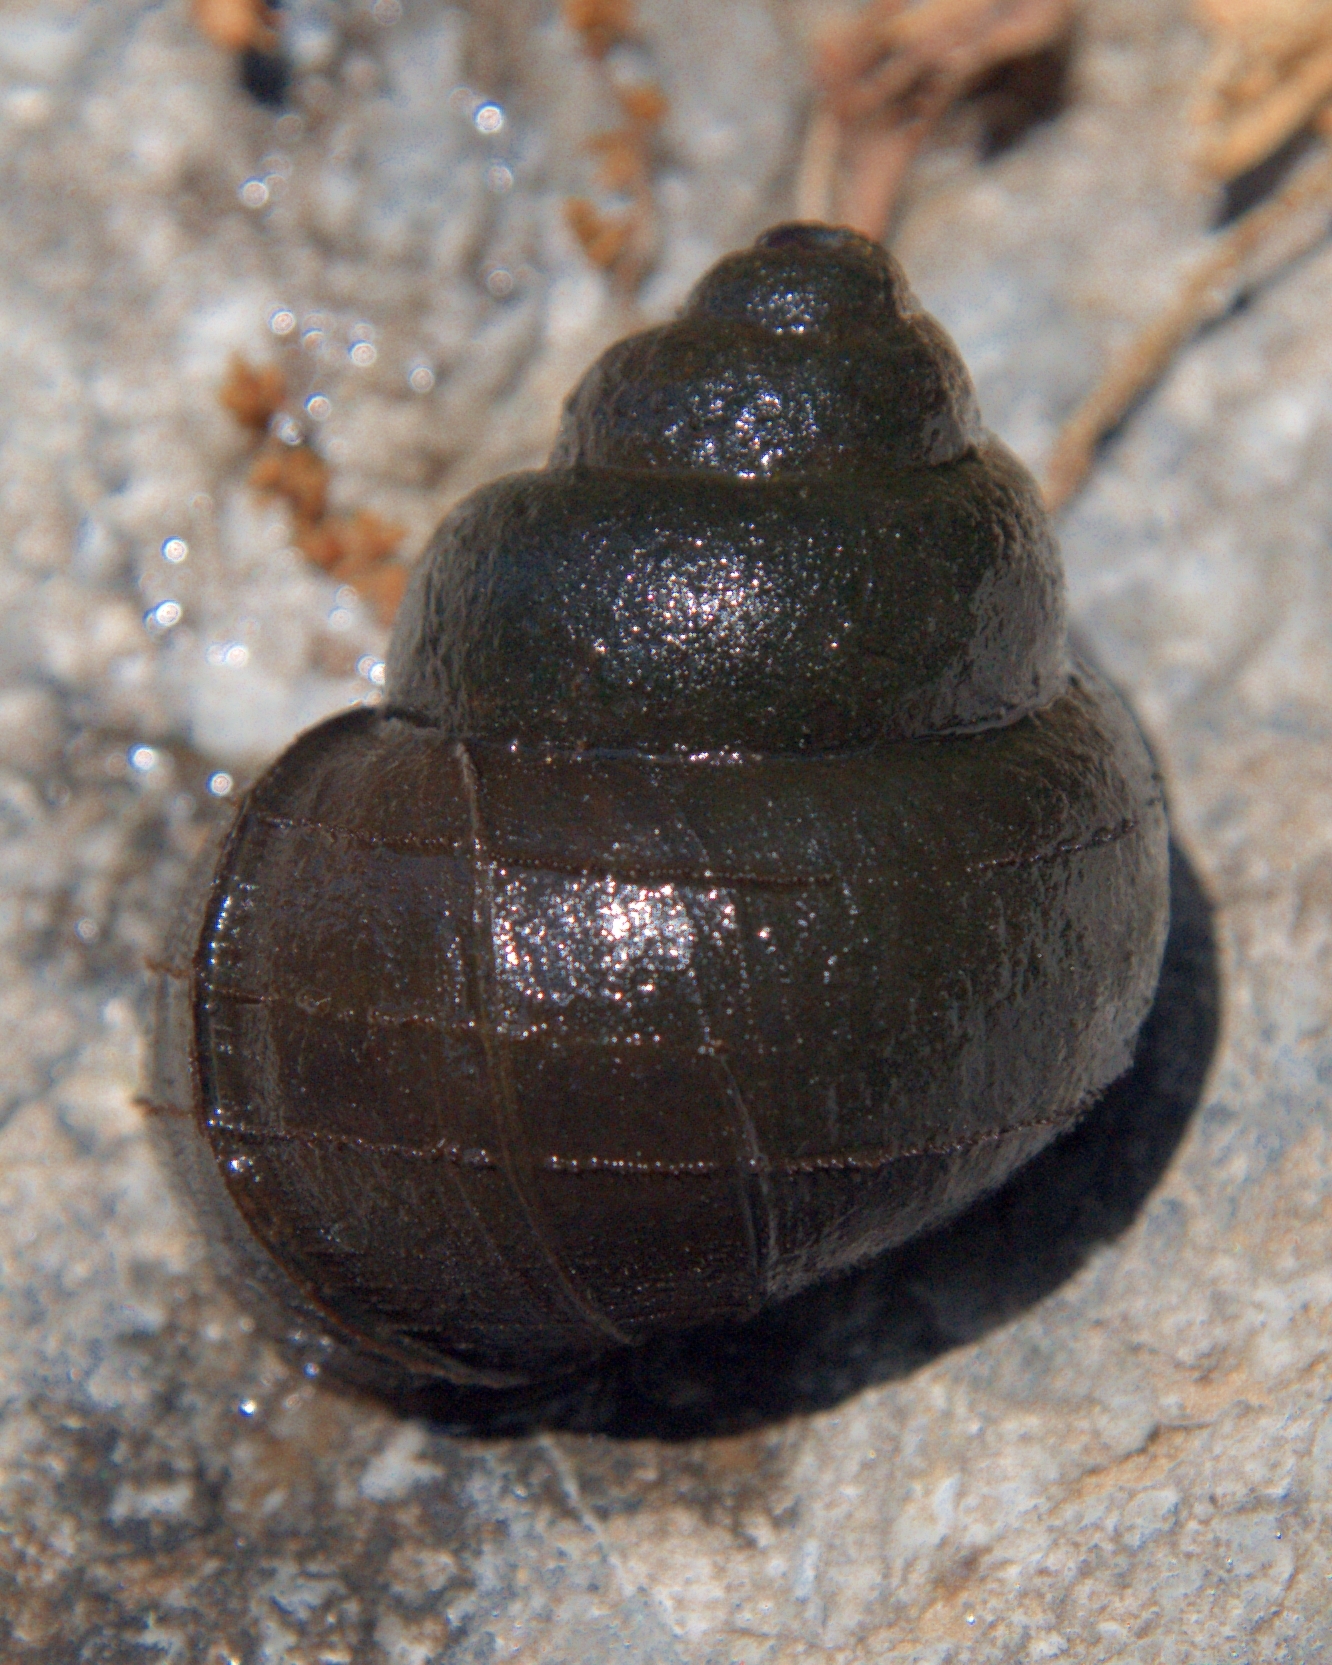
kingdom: Animalia
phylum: Mollusca
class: Gastropoda
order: Architaenioglossa
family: Viviparidae
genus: Cipangopaludina
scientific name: Cipangopaludina chinensis
